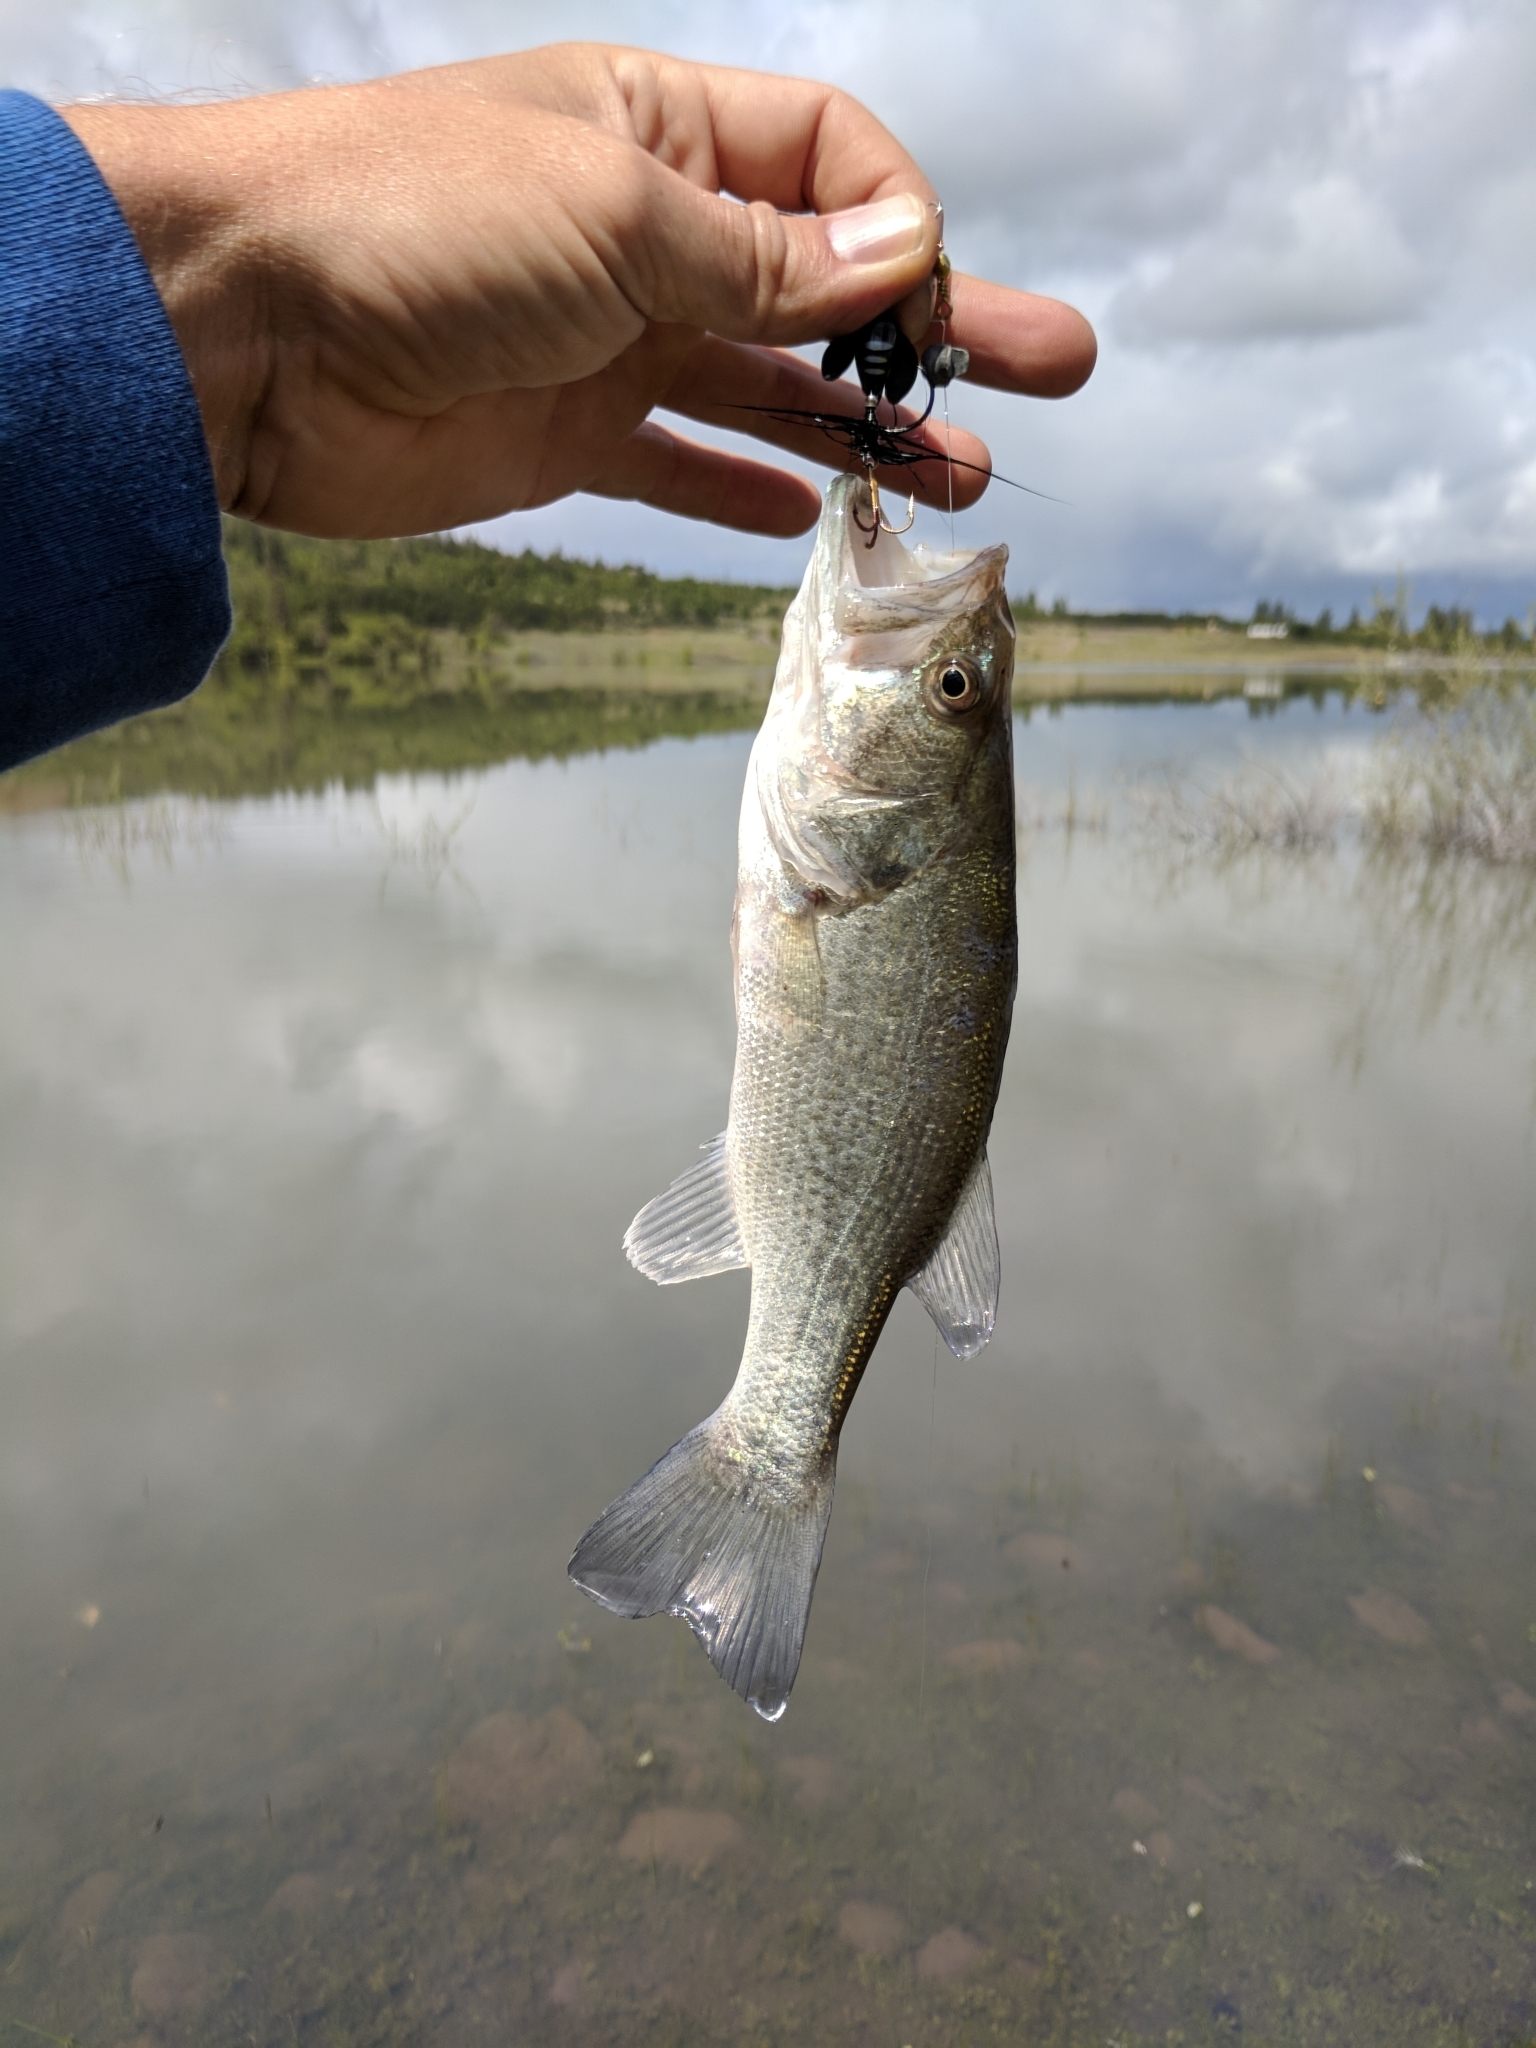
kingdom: Animalia
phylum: Chordata
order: Perciformes
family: Centrarchidae
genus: Micropterus
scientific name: Micropterus
